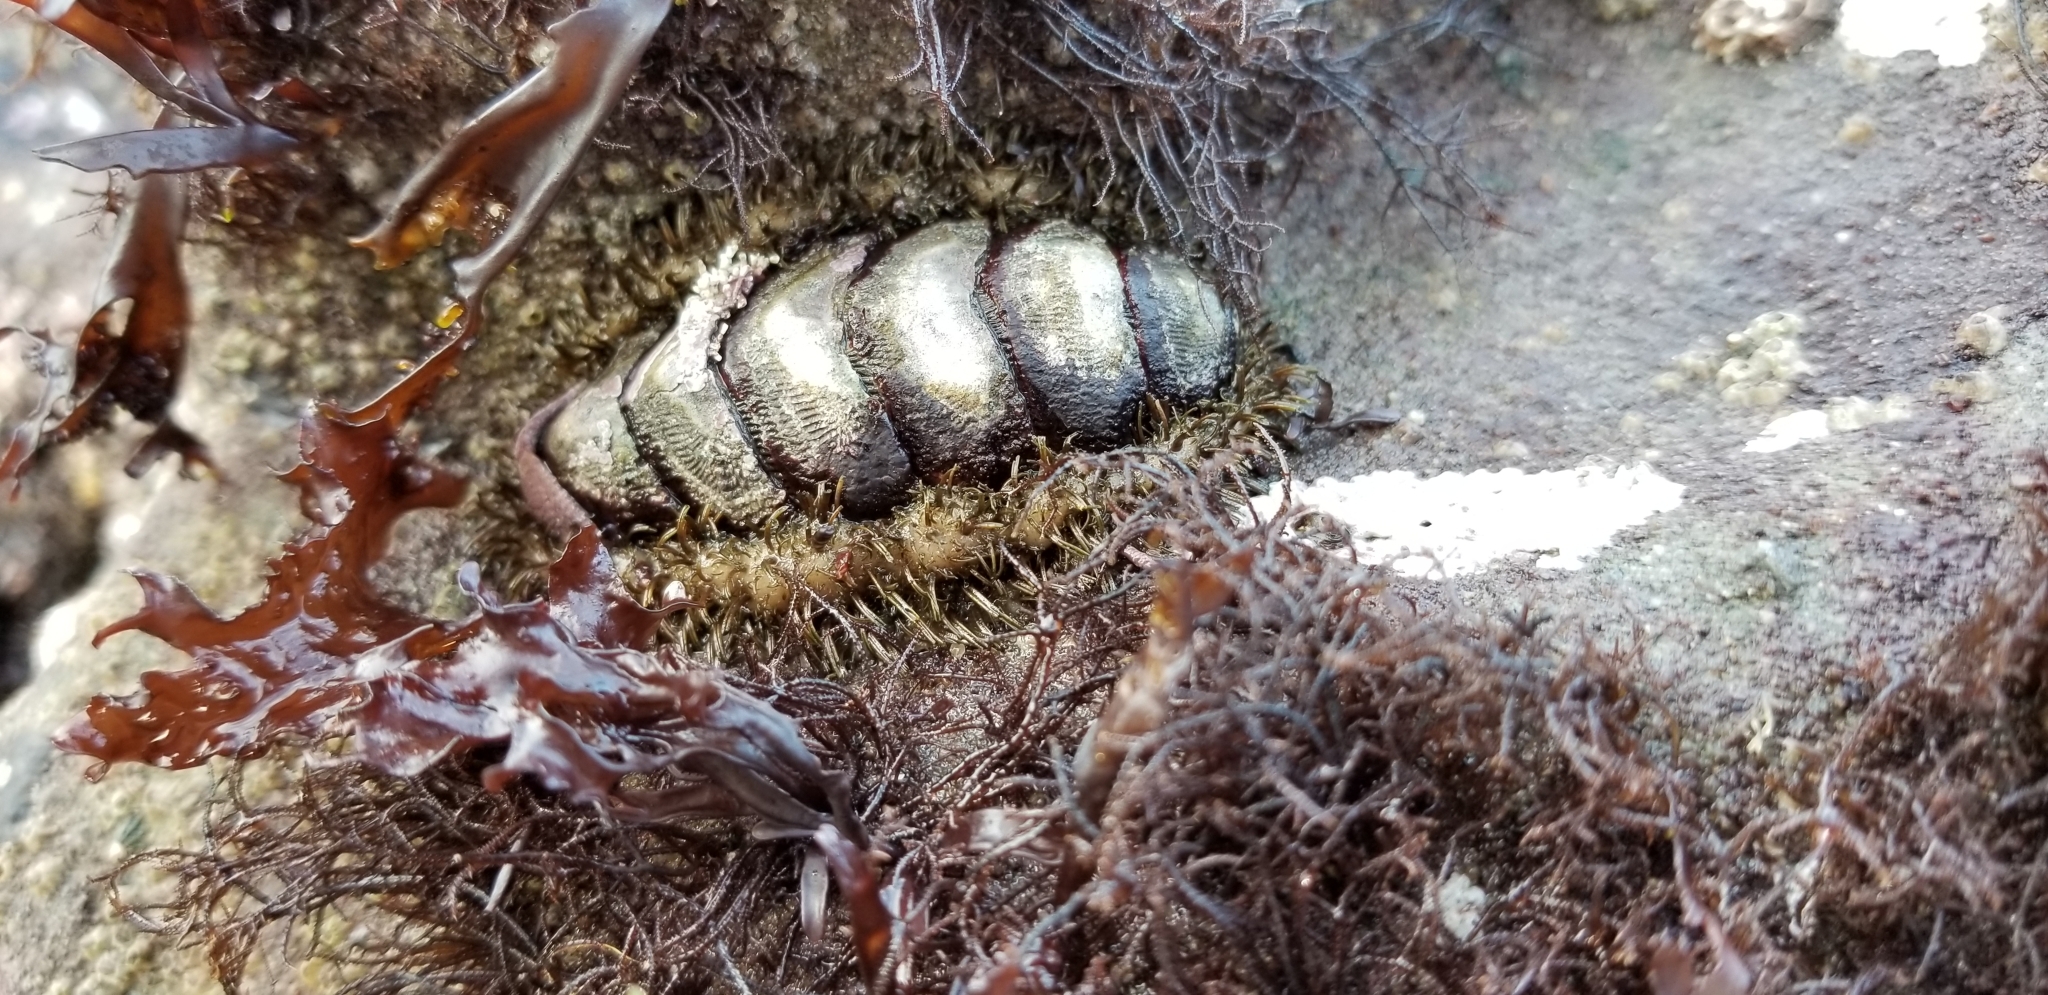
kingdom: Animalia
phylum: Mollusca
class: Polyplacophora
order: Chitonida
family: Mopaliidae
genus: Mopalia
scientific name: Mopalia muscosa
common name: Mossy chiton
